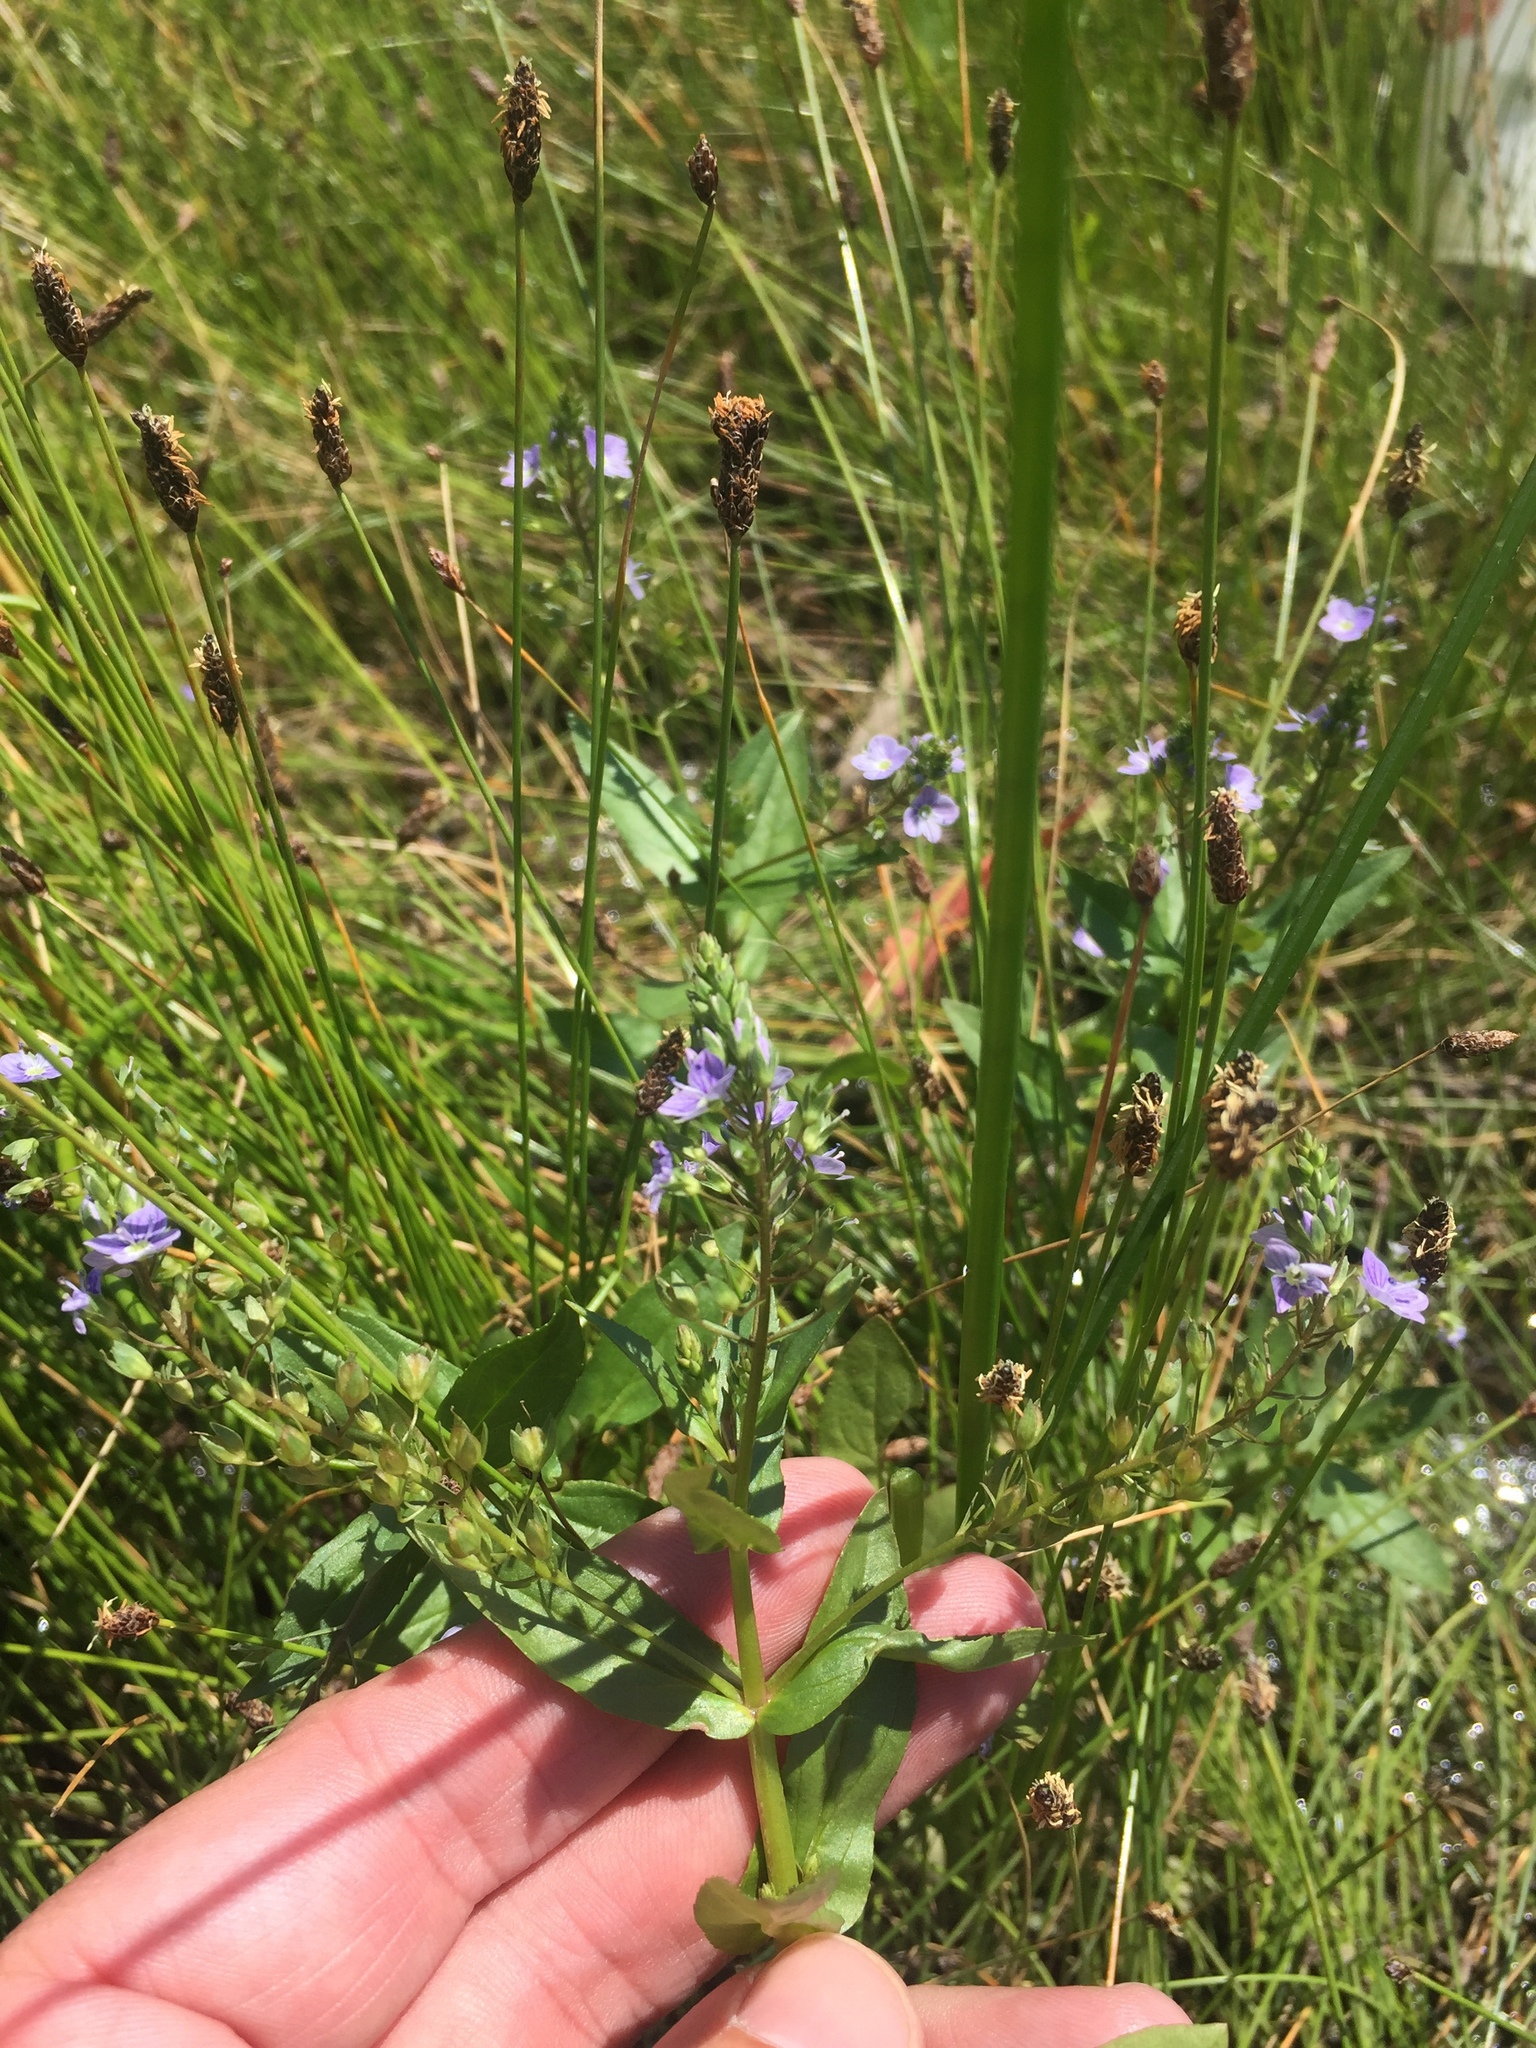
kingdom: Plantae
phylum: Tracheophyta
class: Magnoliopsida
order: Lamiales
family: Plantaginaceae
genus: Veronica
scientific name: Veronica anagallis-aquatica
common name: Water speedwell
